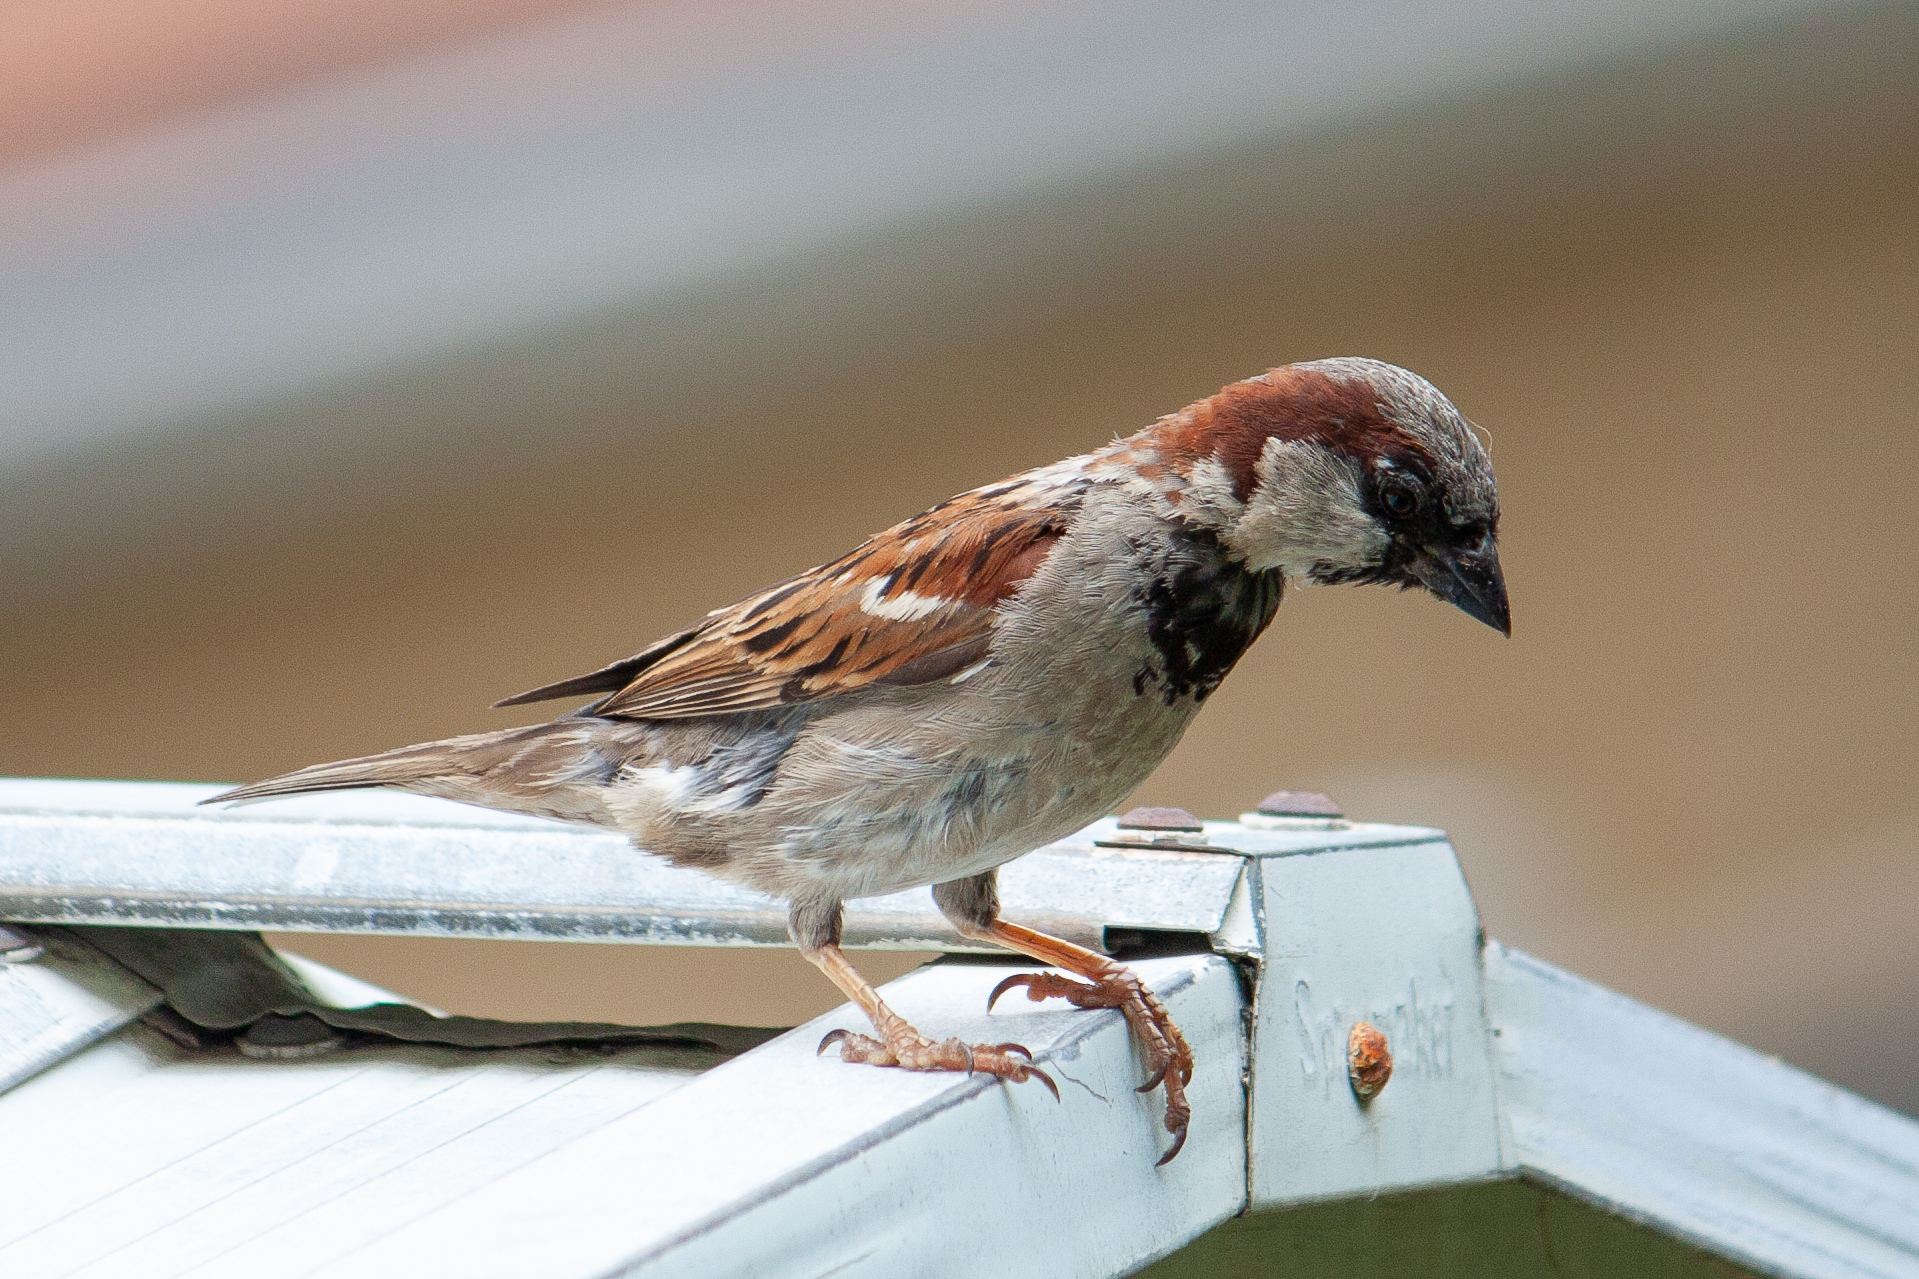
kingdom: Animalia
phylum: Chordata
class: Aves
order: Passeriformes
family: Passeridae
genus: Passer
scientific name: Passer domesticus
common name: House sparrow
